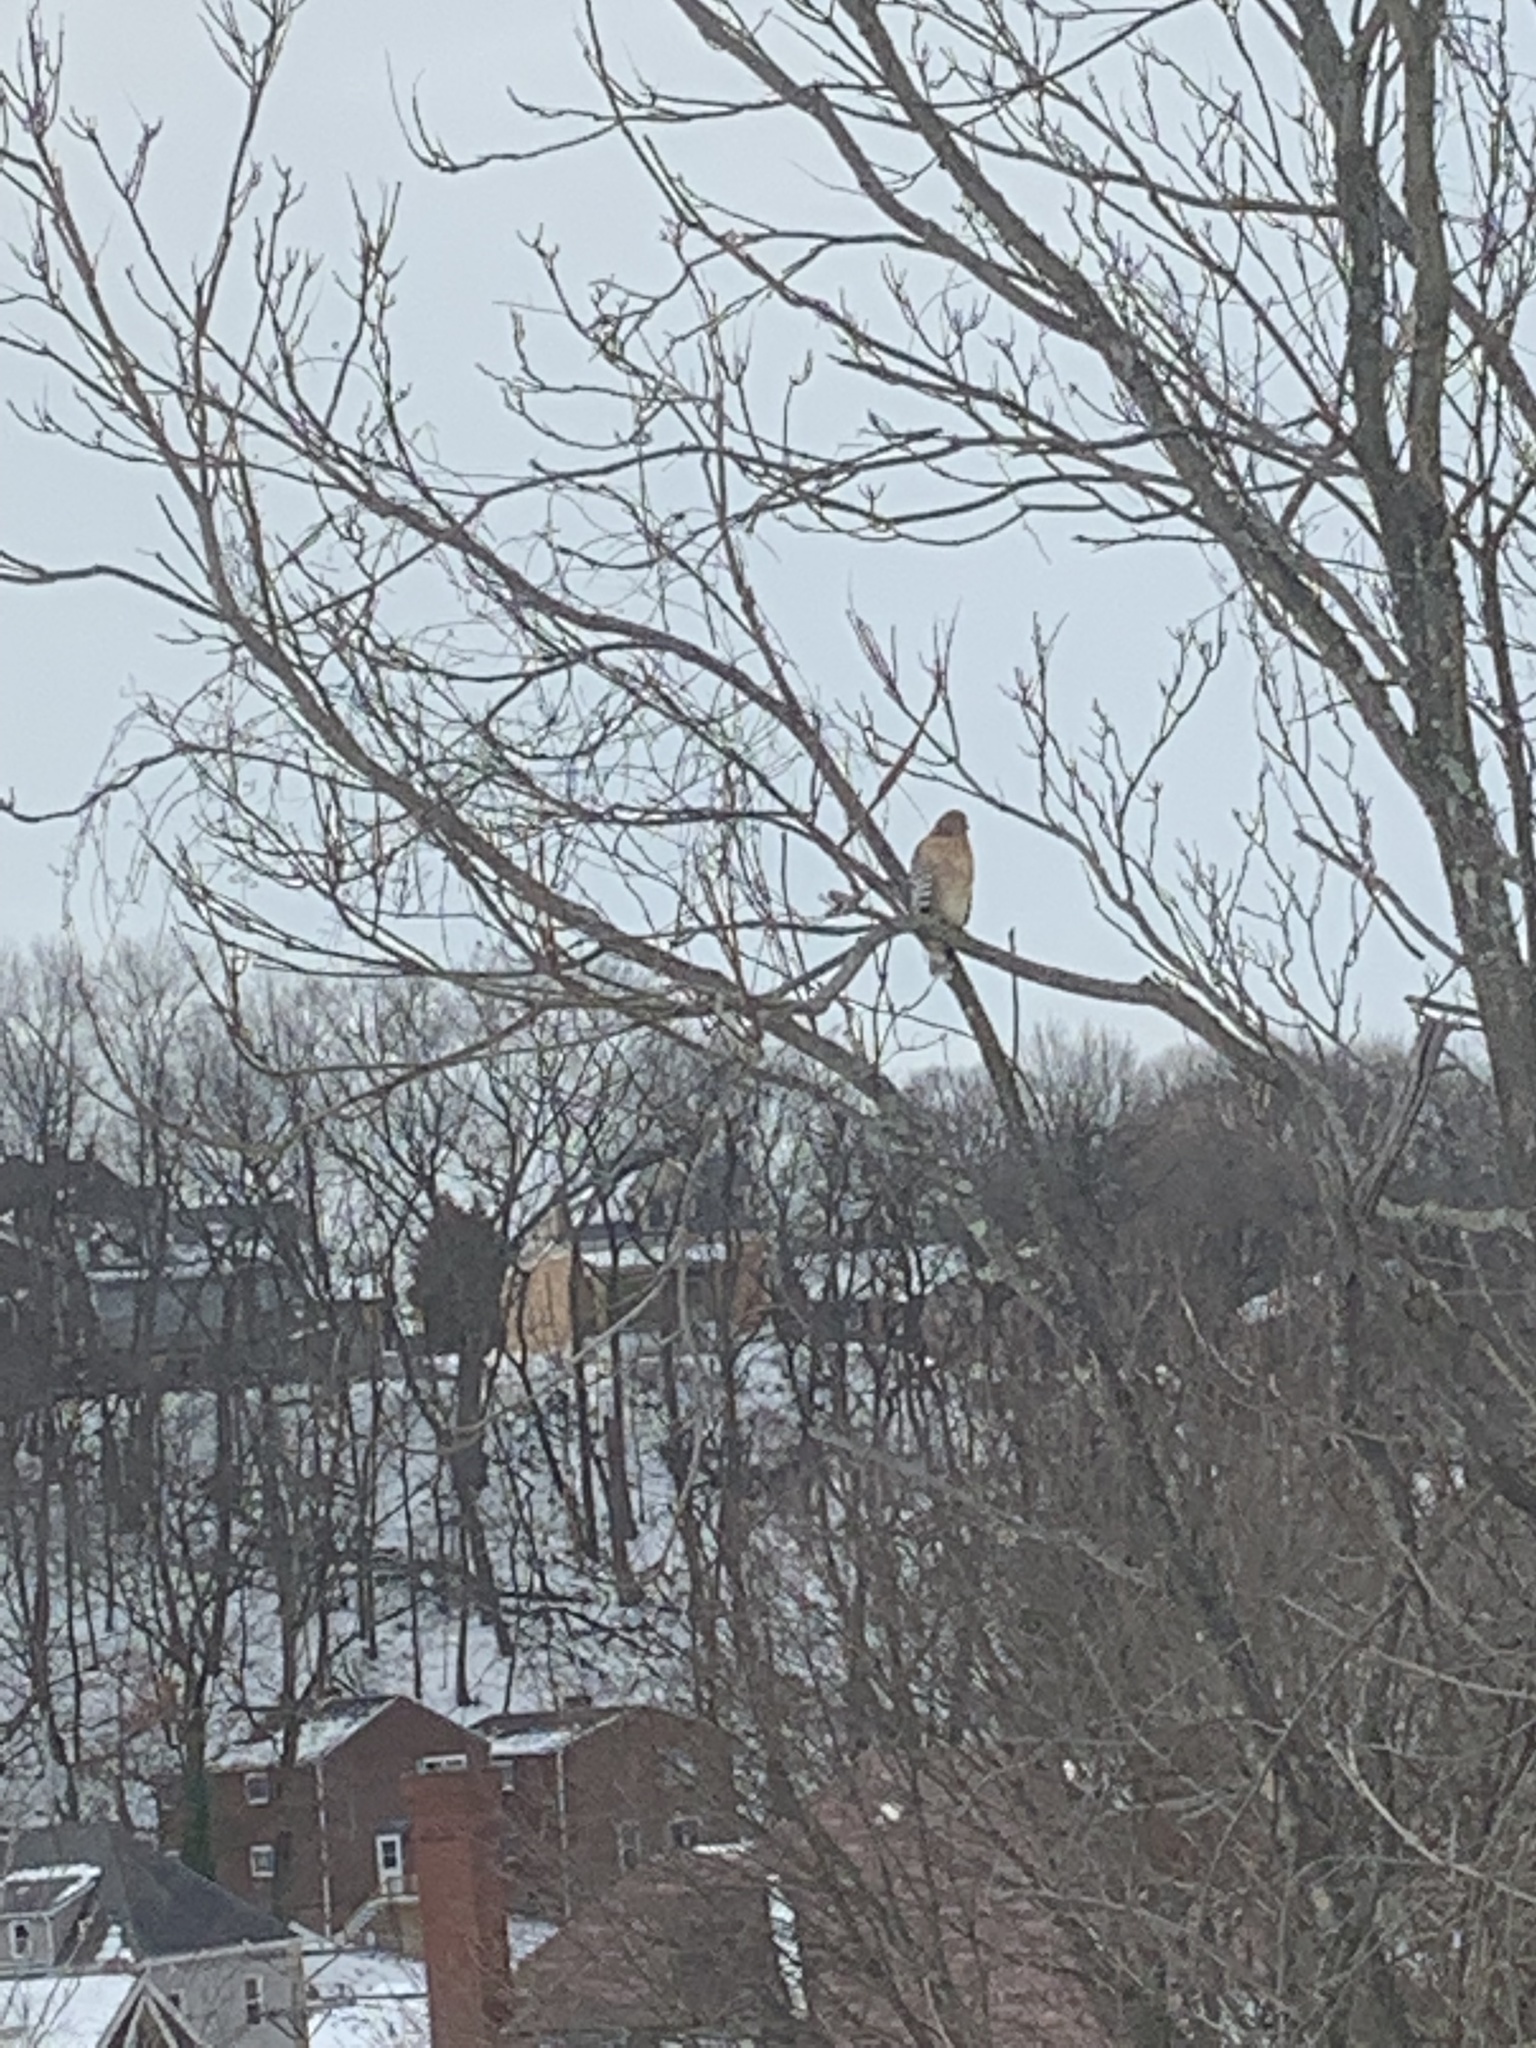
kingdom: Animalia
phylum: Chordata
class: Aves
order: Accipitriformes
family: Accipitridae
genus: Buteo
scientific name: Buteo lineatus
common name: Red-shouldered hawk
